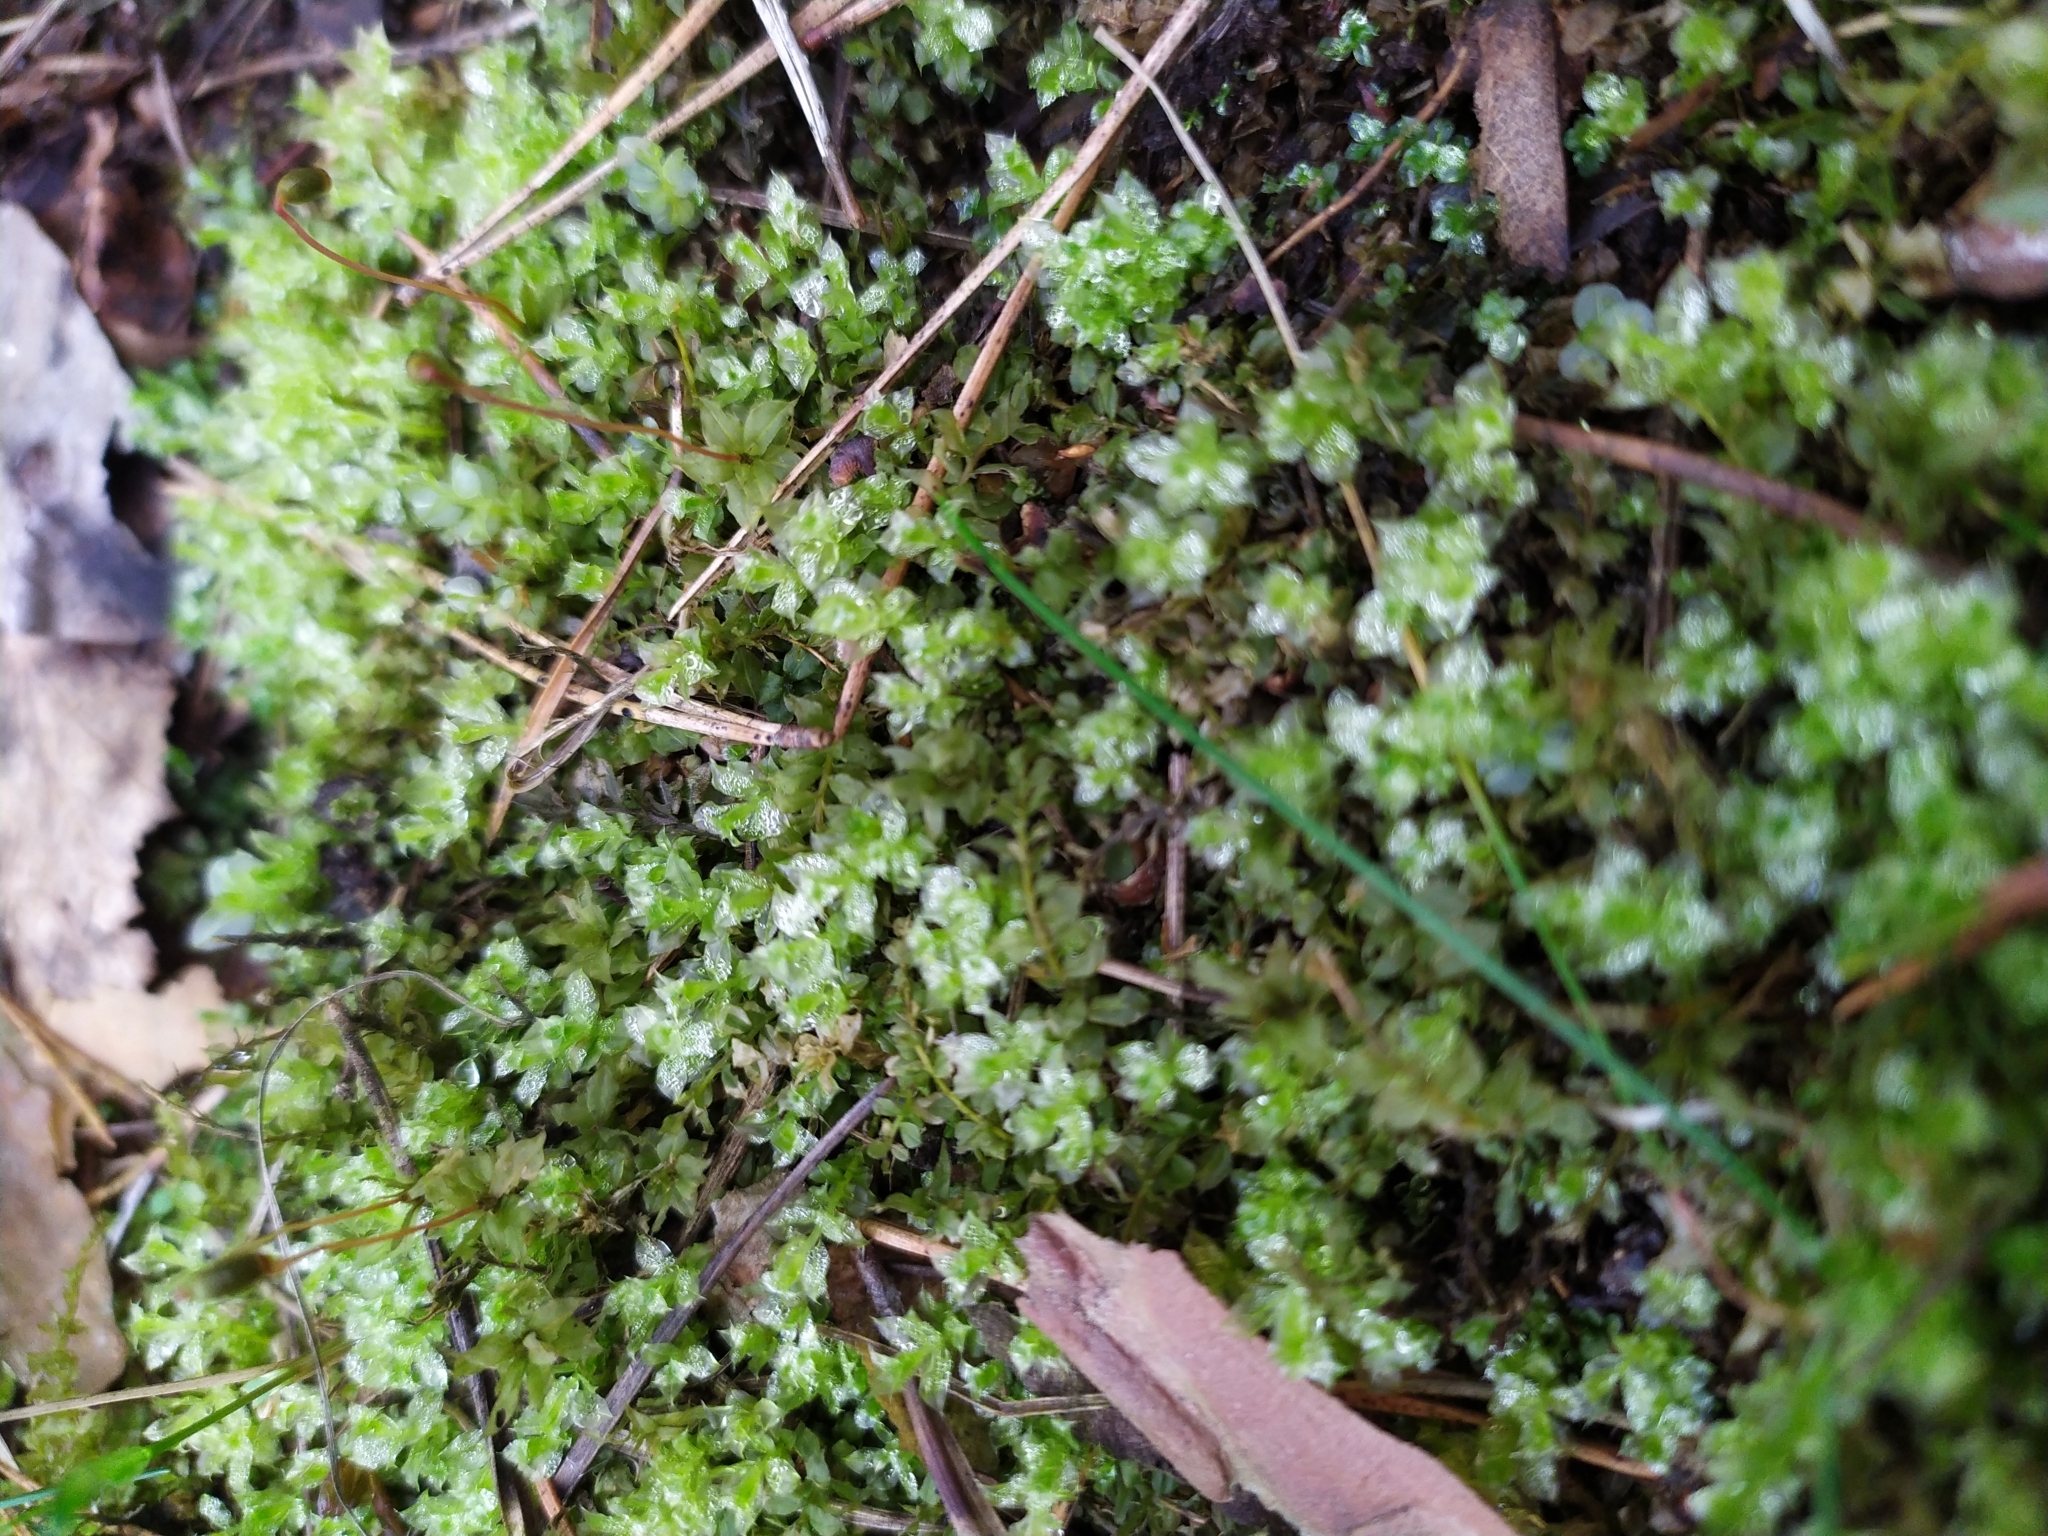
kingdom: Plantae
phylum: Bryophyta
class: Bryopsida
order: Bryales
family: Mniaceae
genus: Plagiomnium
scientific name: Plagiomnium cuspidatum
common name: Woodsy leafy moss
